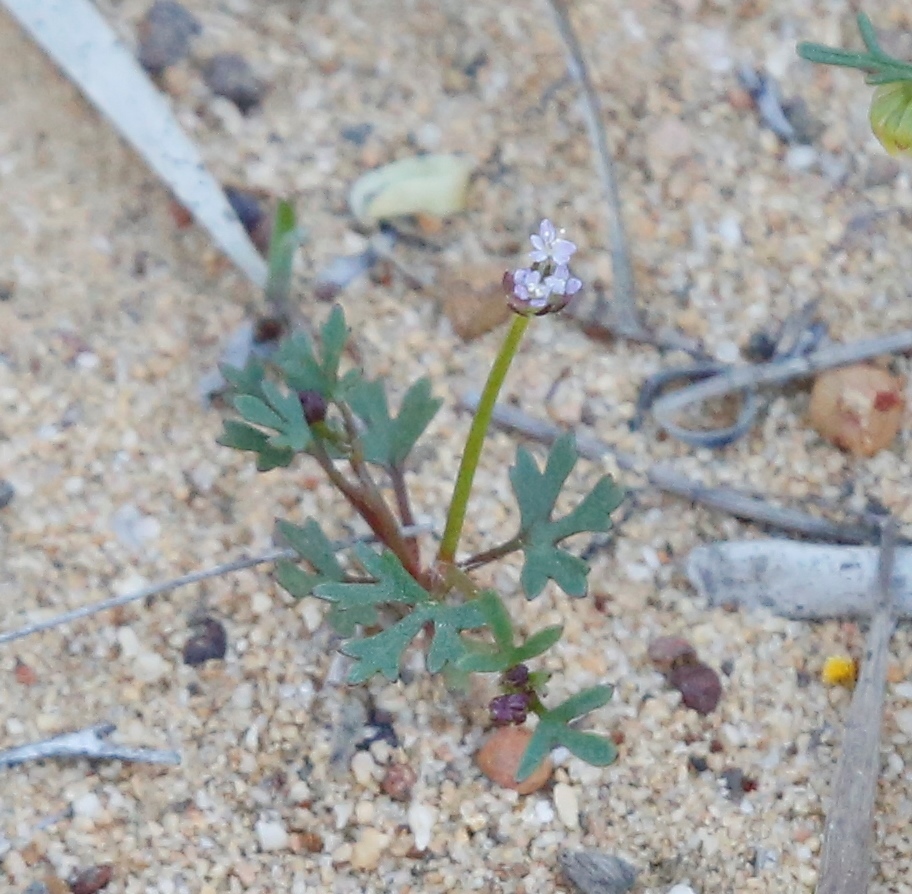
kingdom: Plantae
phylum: Tracheophyta
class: Magnoliopsida
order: Apiales
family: Araliaceae
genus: Trachymene
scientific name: Trachymene cyanopetala
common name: Purple trachymene
